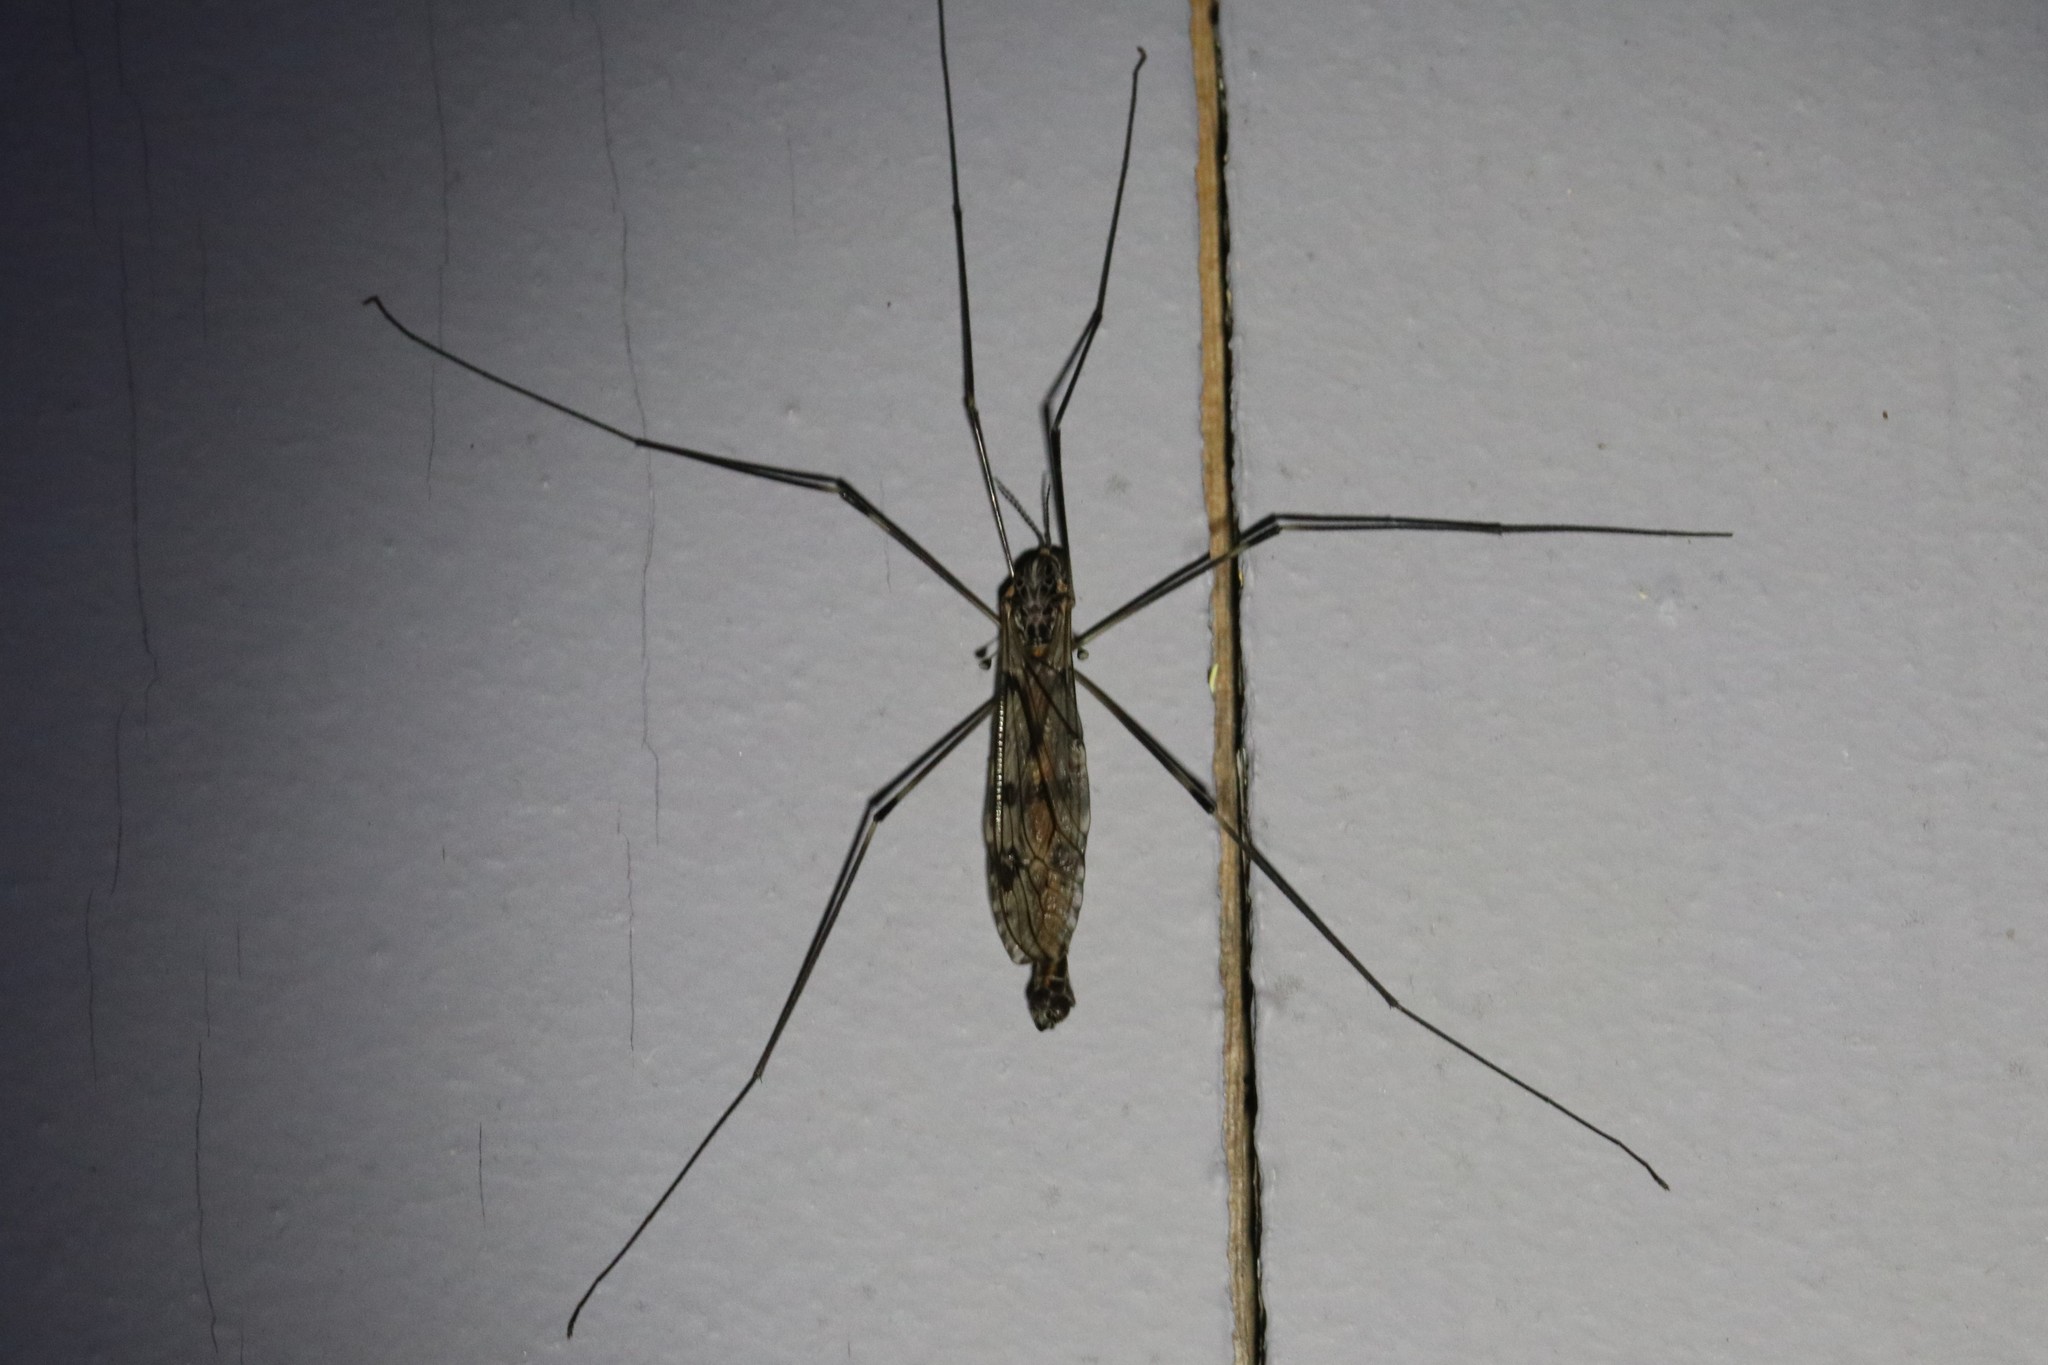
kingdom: Animalia
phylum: Arthropoda
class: Insecta
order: Diptera
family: Tipulidae
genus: Tipula
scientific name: Tipula abdominalis
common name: Giant crane fly
